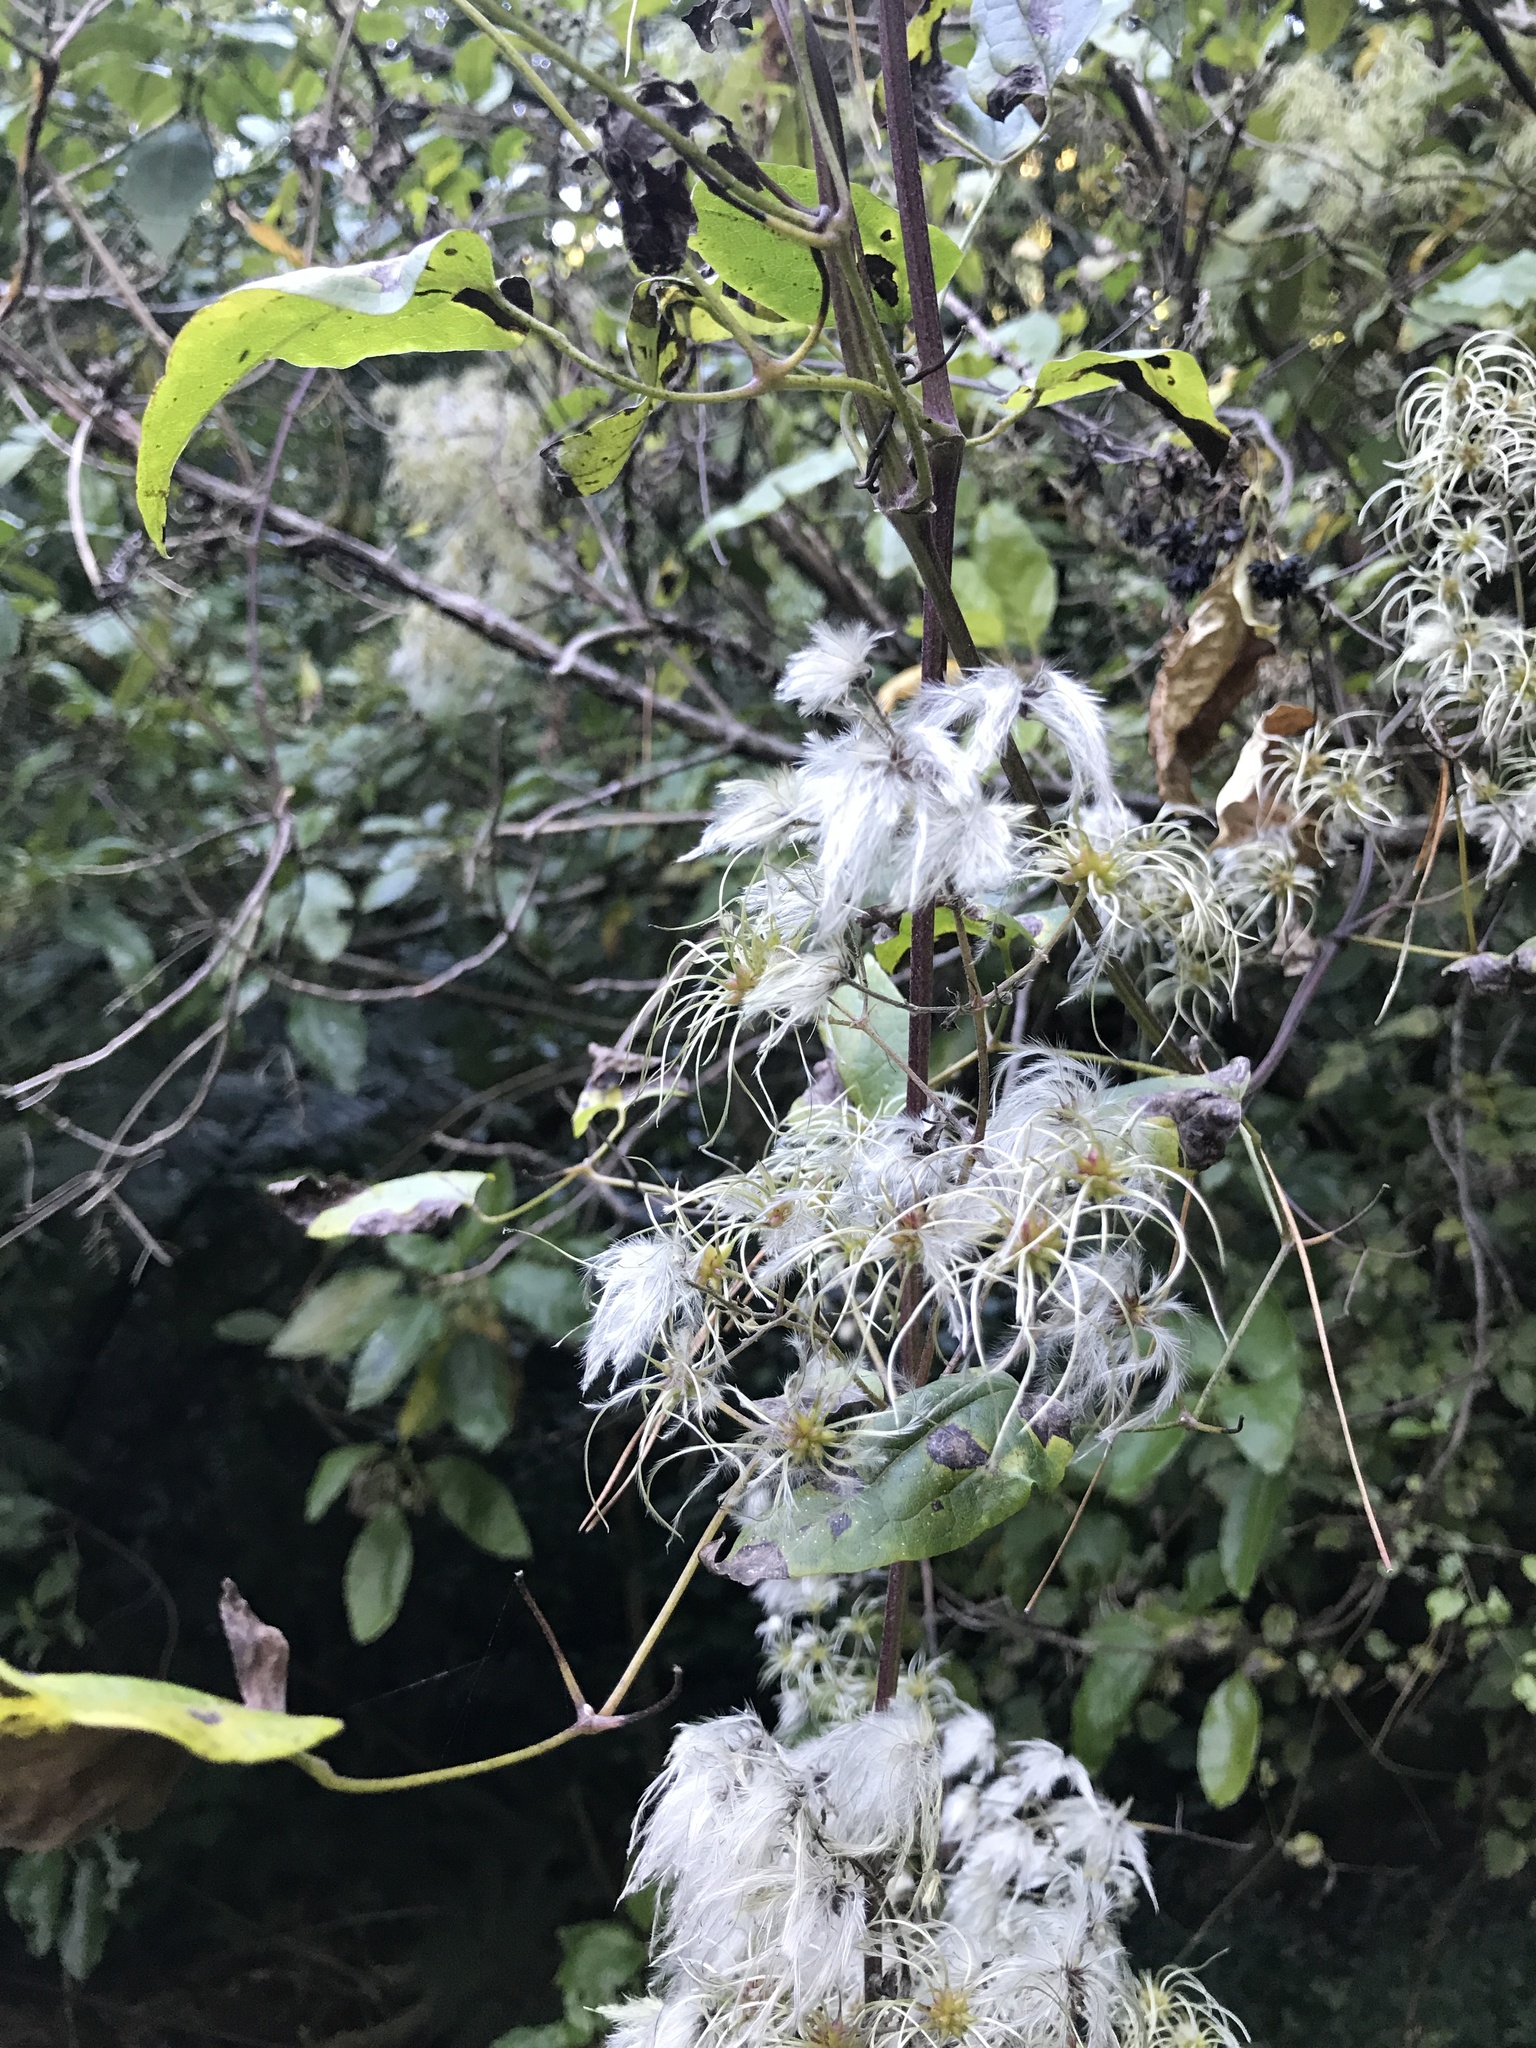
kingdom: Plantae
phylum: Tracheophyta
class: Magnoliopsida
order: Ranunculales
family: Ranunculaceae
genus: Clematis
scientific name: Clematis vitalba
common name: Evergreen clematis
